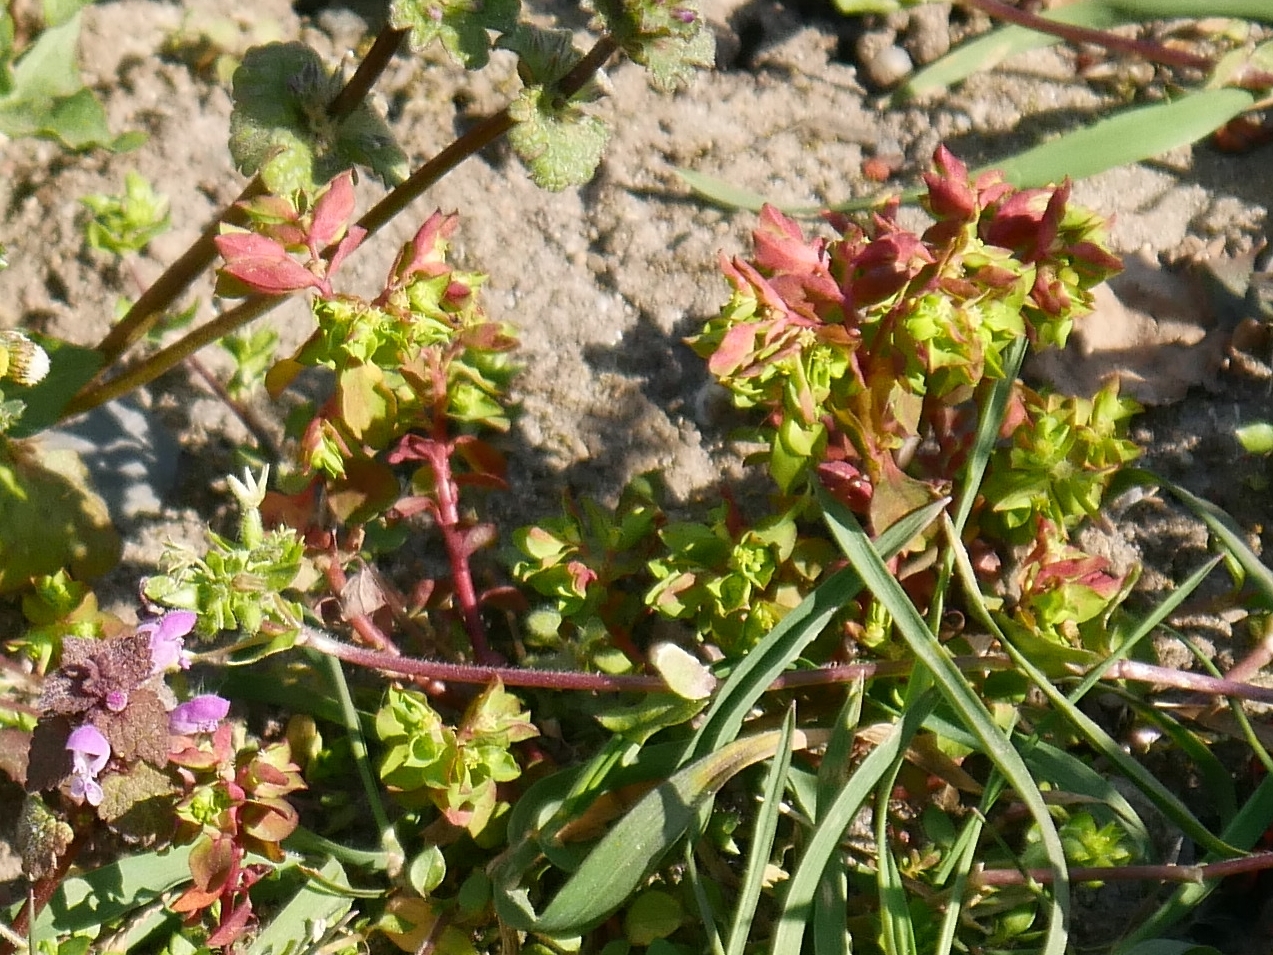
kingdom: Plantae
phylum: Tracheophyta
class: Magnoliopsida
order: Malpighiales
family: Euphorbiaceae
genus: Euphorbia
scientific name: Euphorbia peplus
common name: Petty spurge
